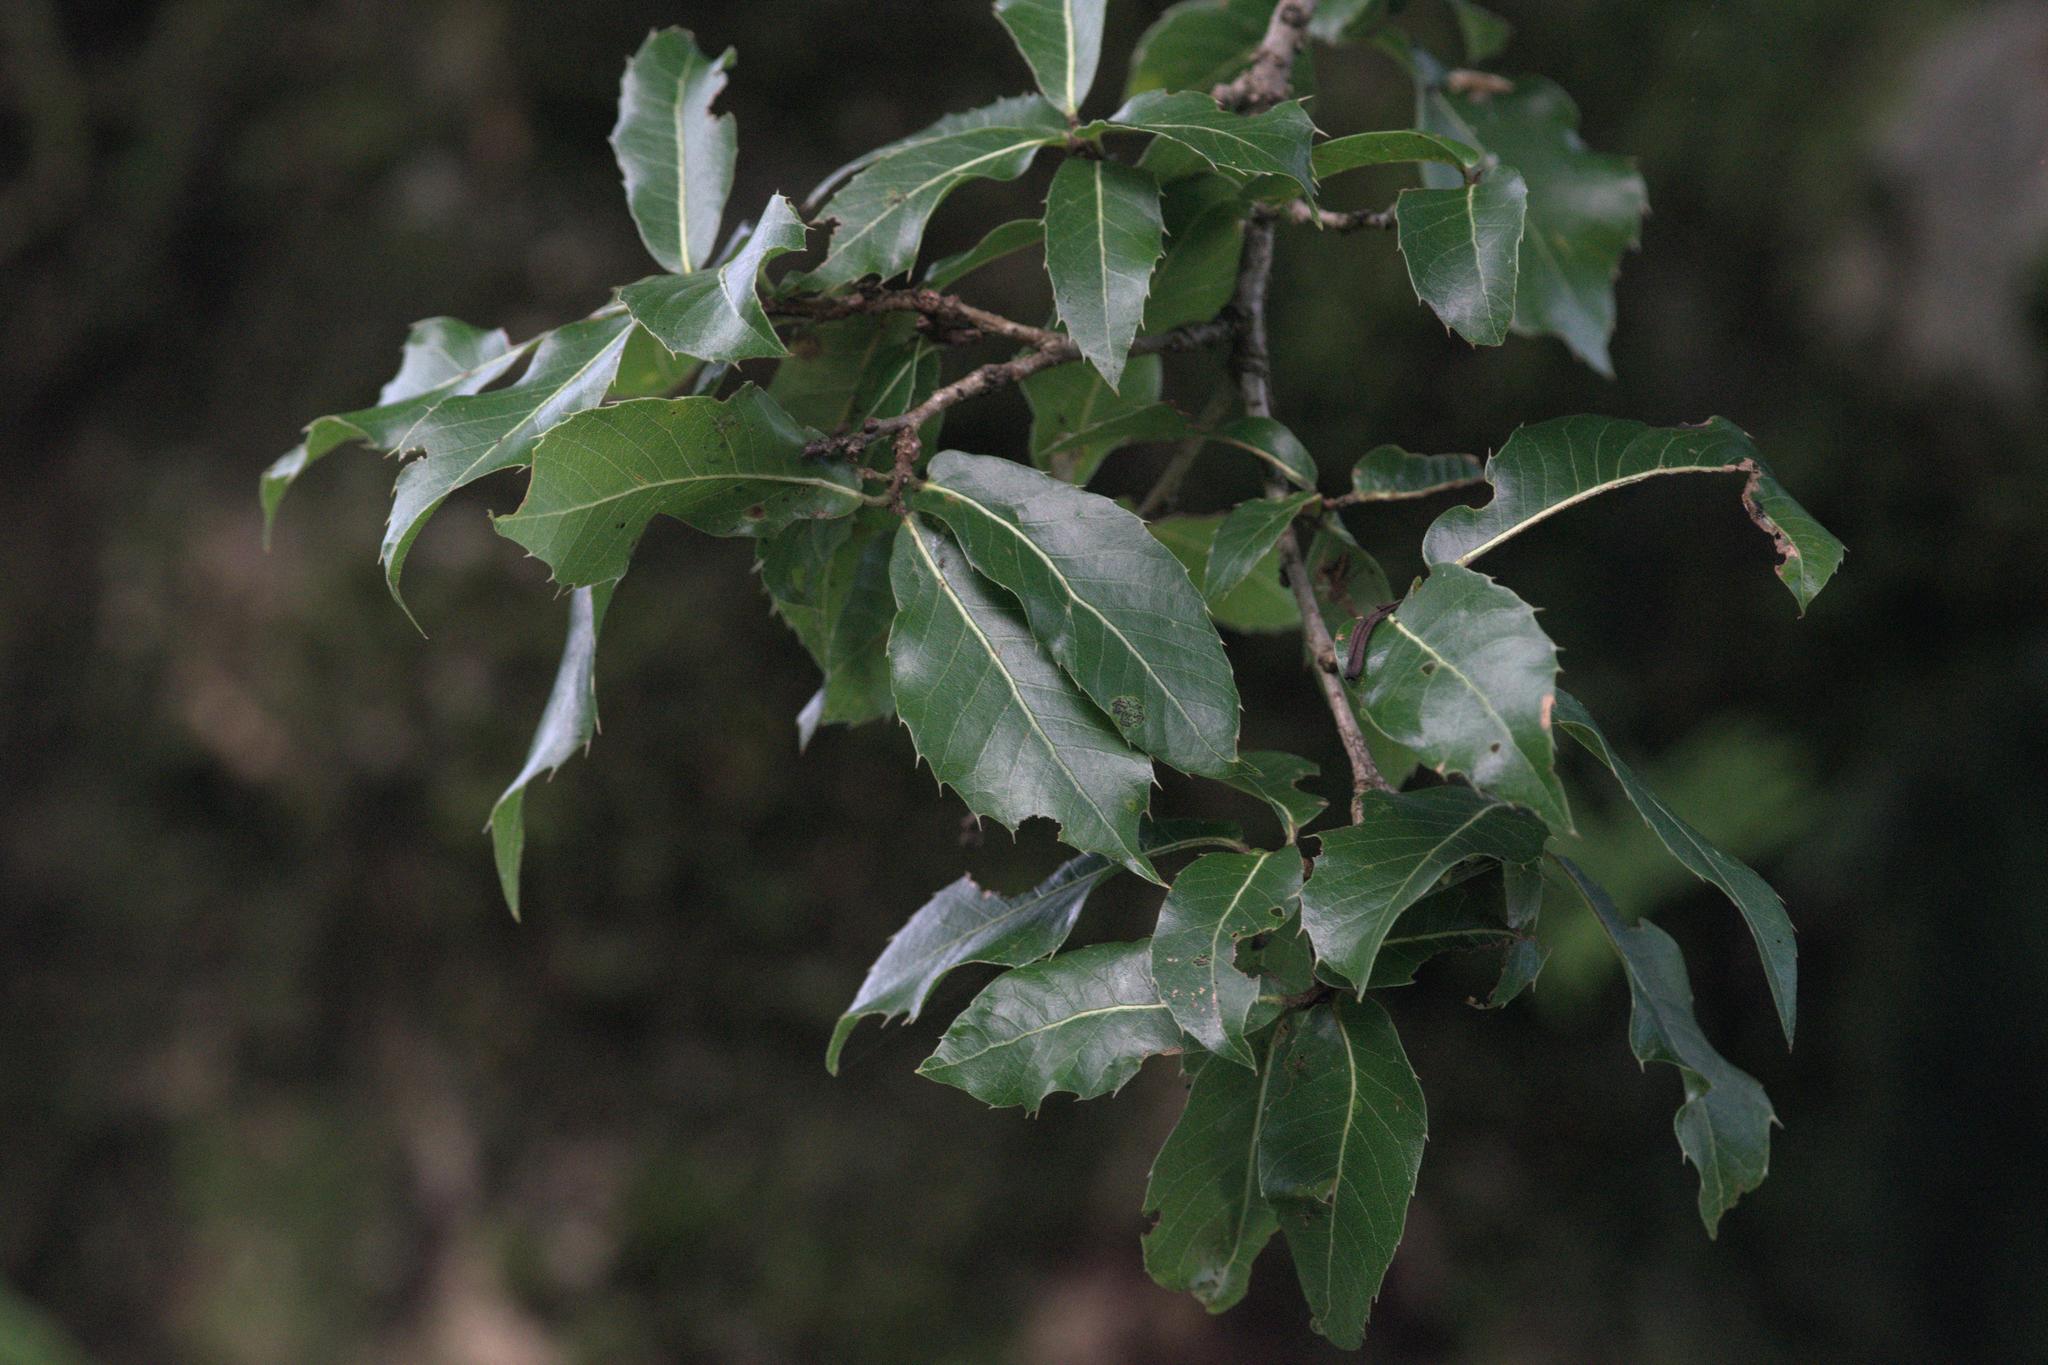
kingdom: Plantae
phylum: Tracheophyta
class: Magnoliopsida
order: Fagales
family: Fagaceae
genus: Quercus
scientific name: Quercus floribunda
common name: Moru
